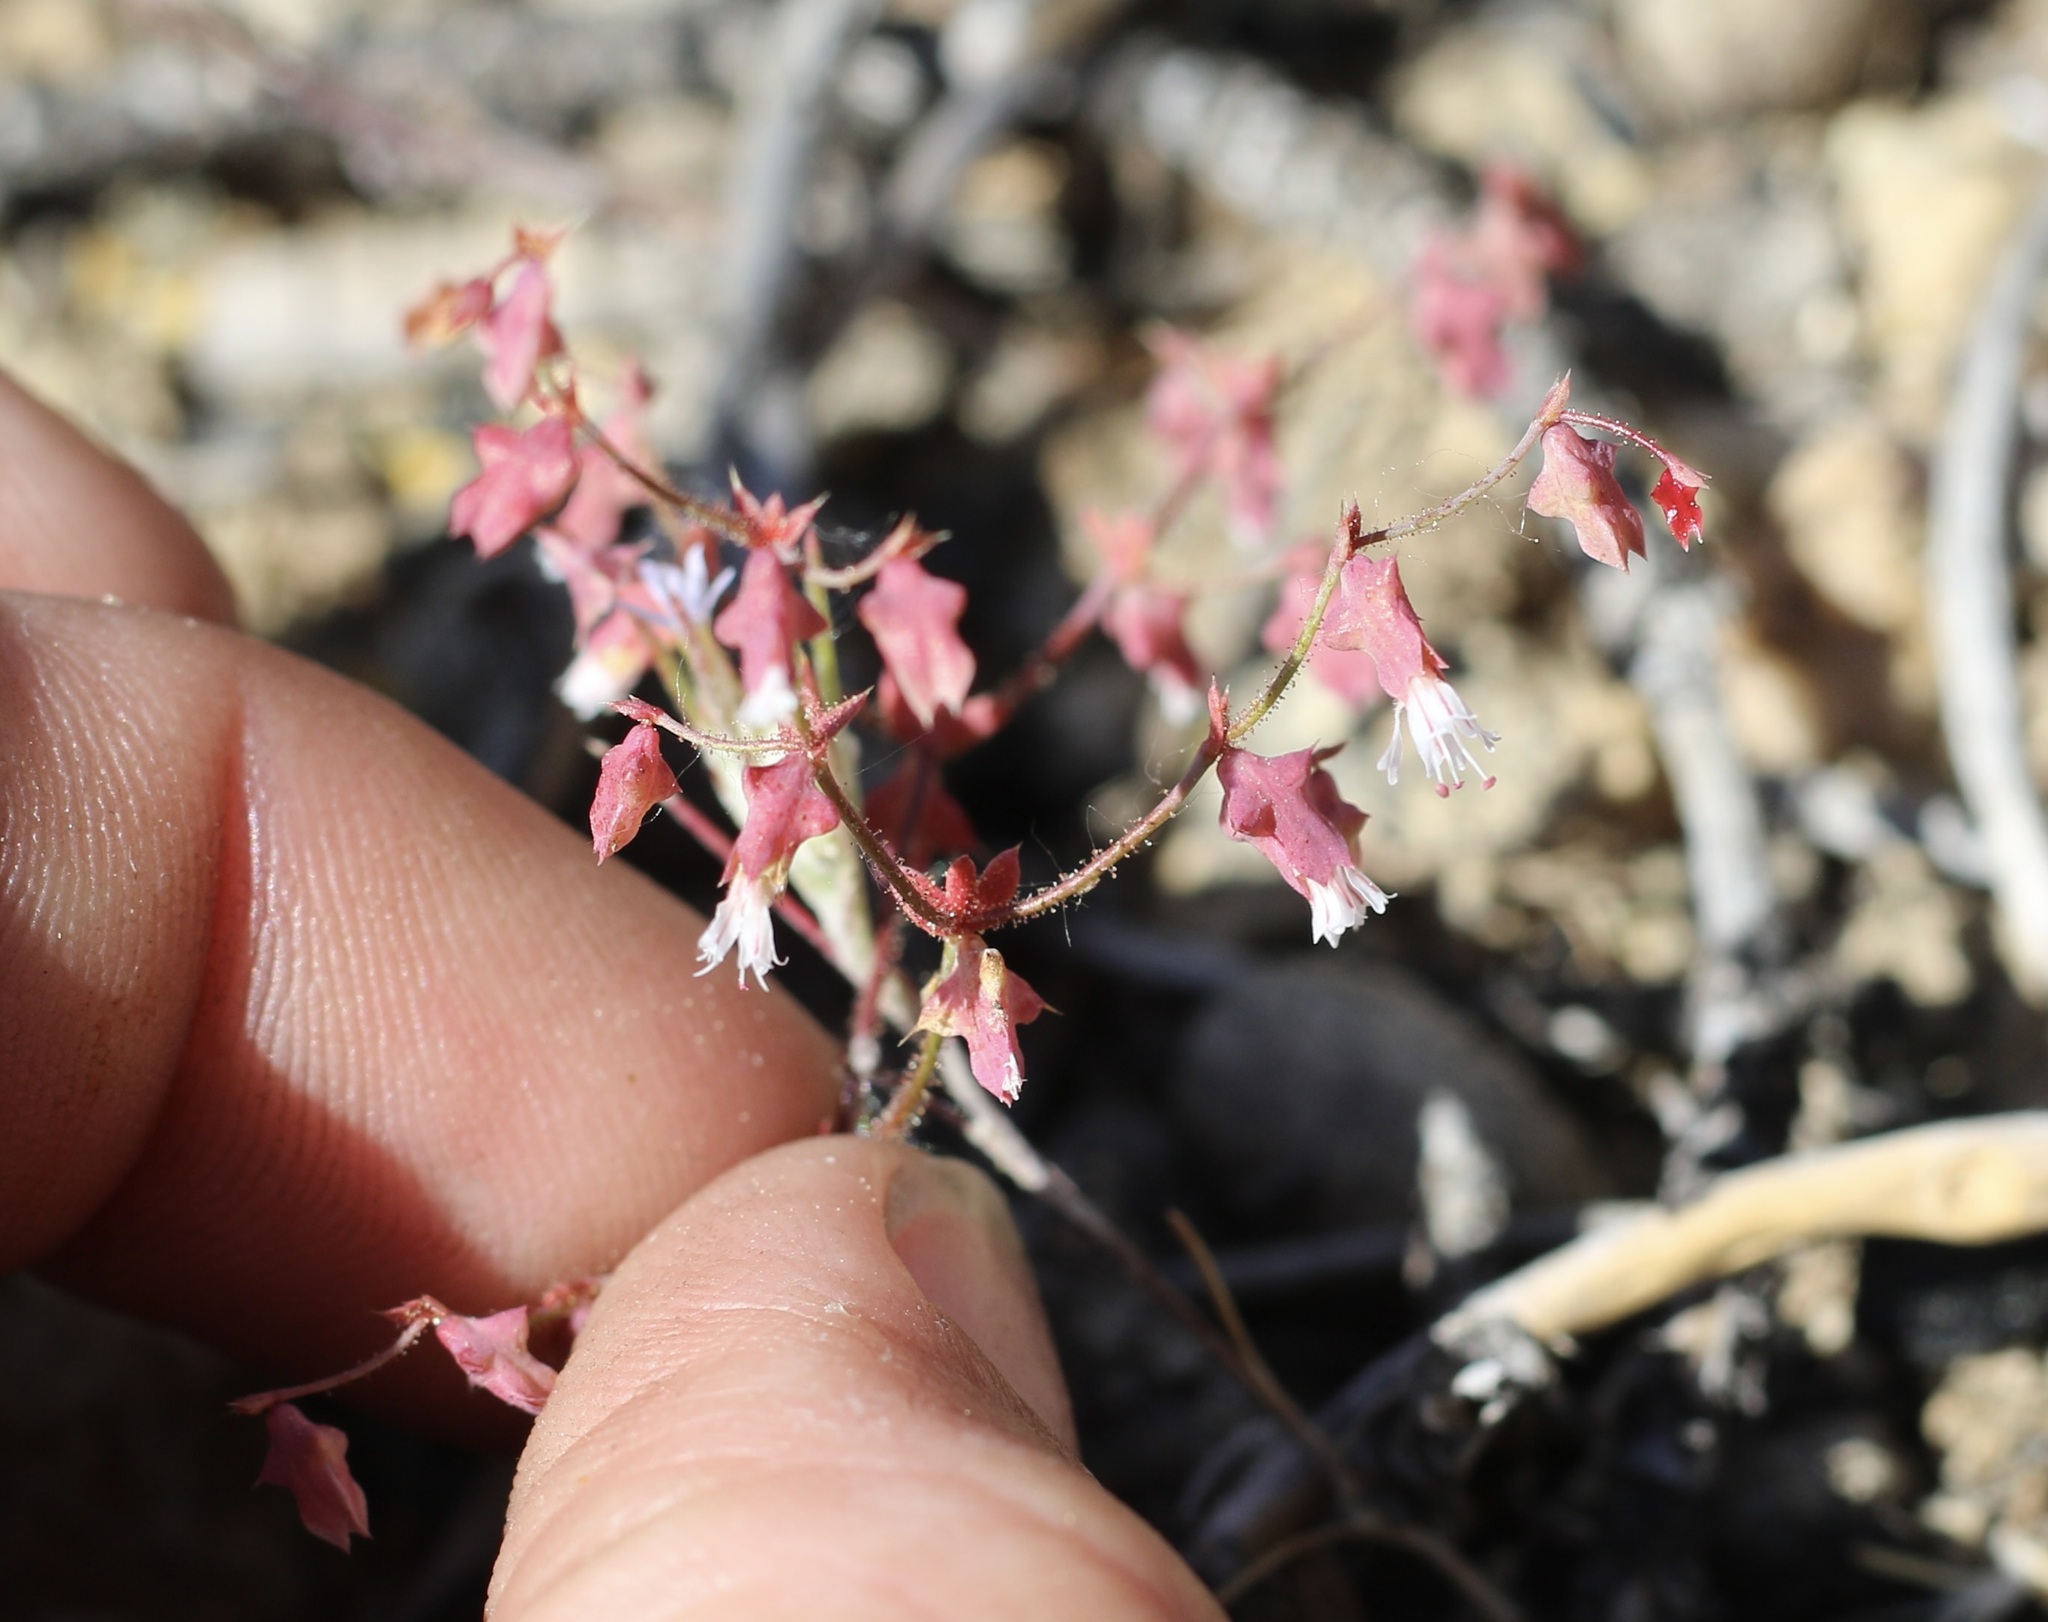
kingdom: Plantae
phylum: Tracheophyta
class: Magnoliopsida
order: Caryophyllales
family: Polygonaceae
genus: Centrostegia
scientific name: Centrostegia thurberi
